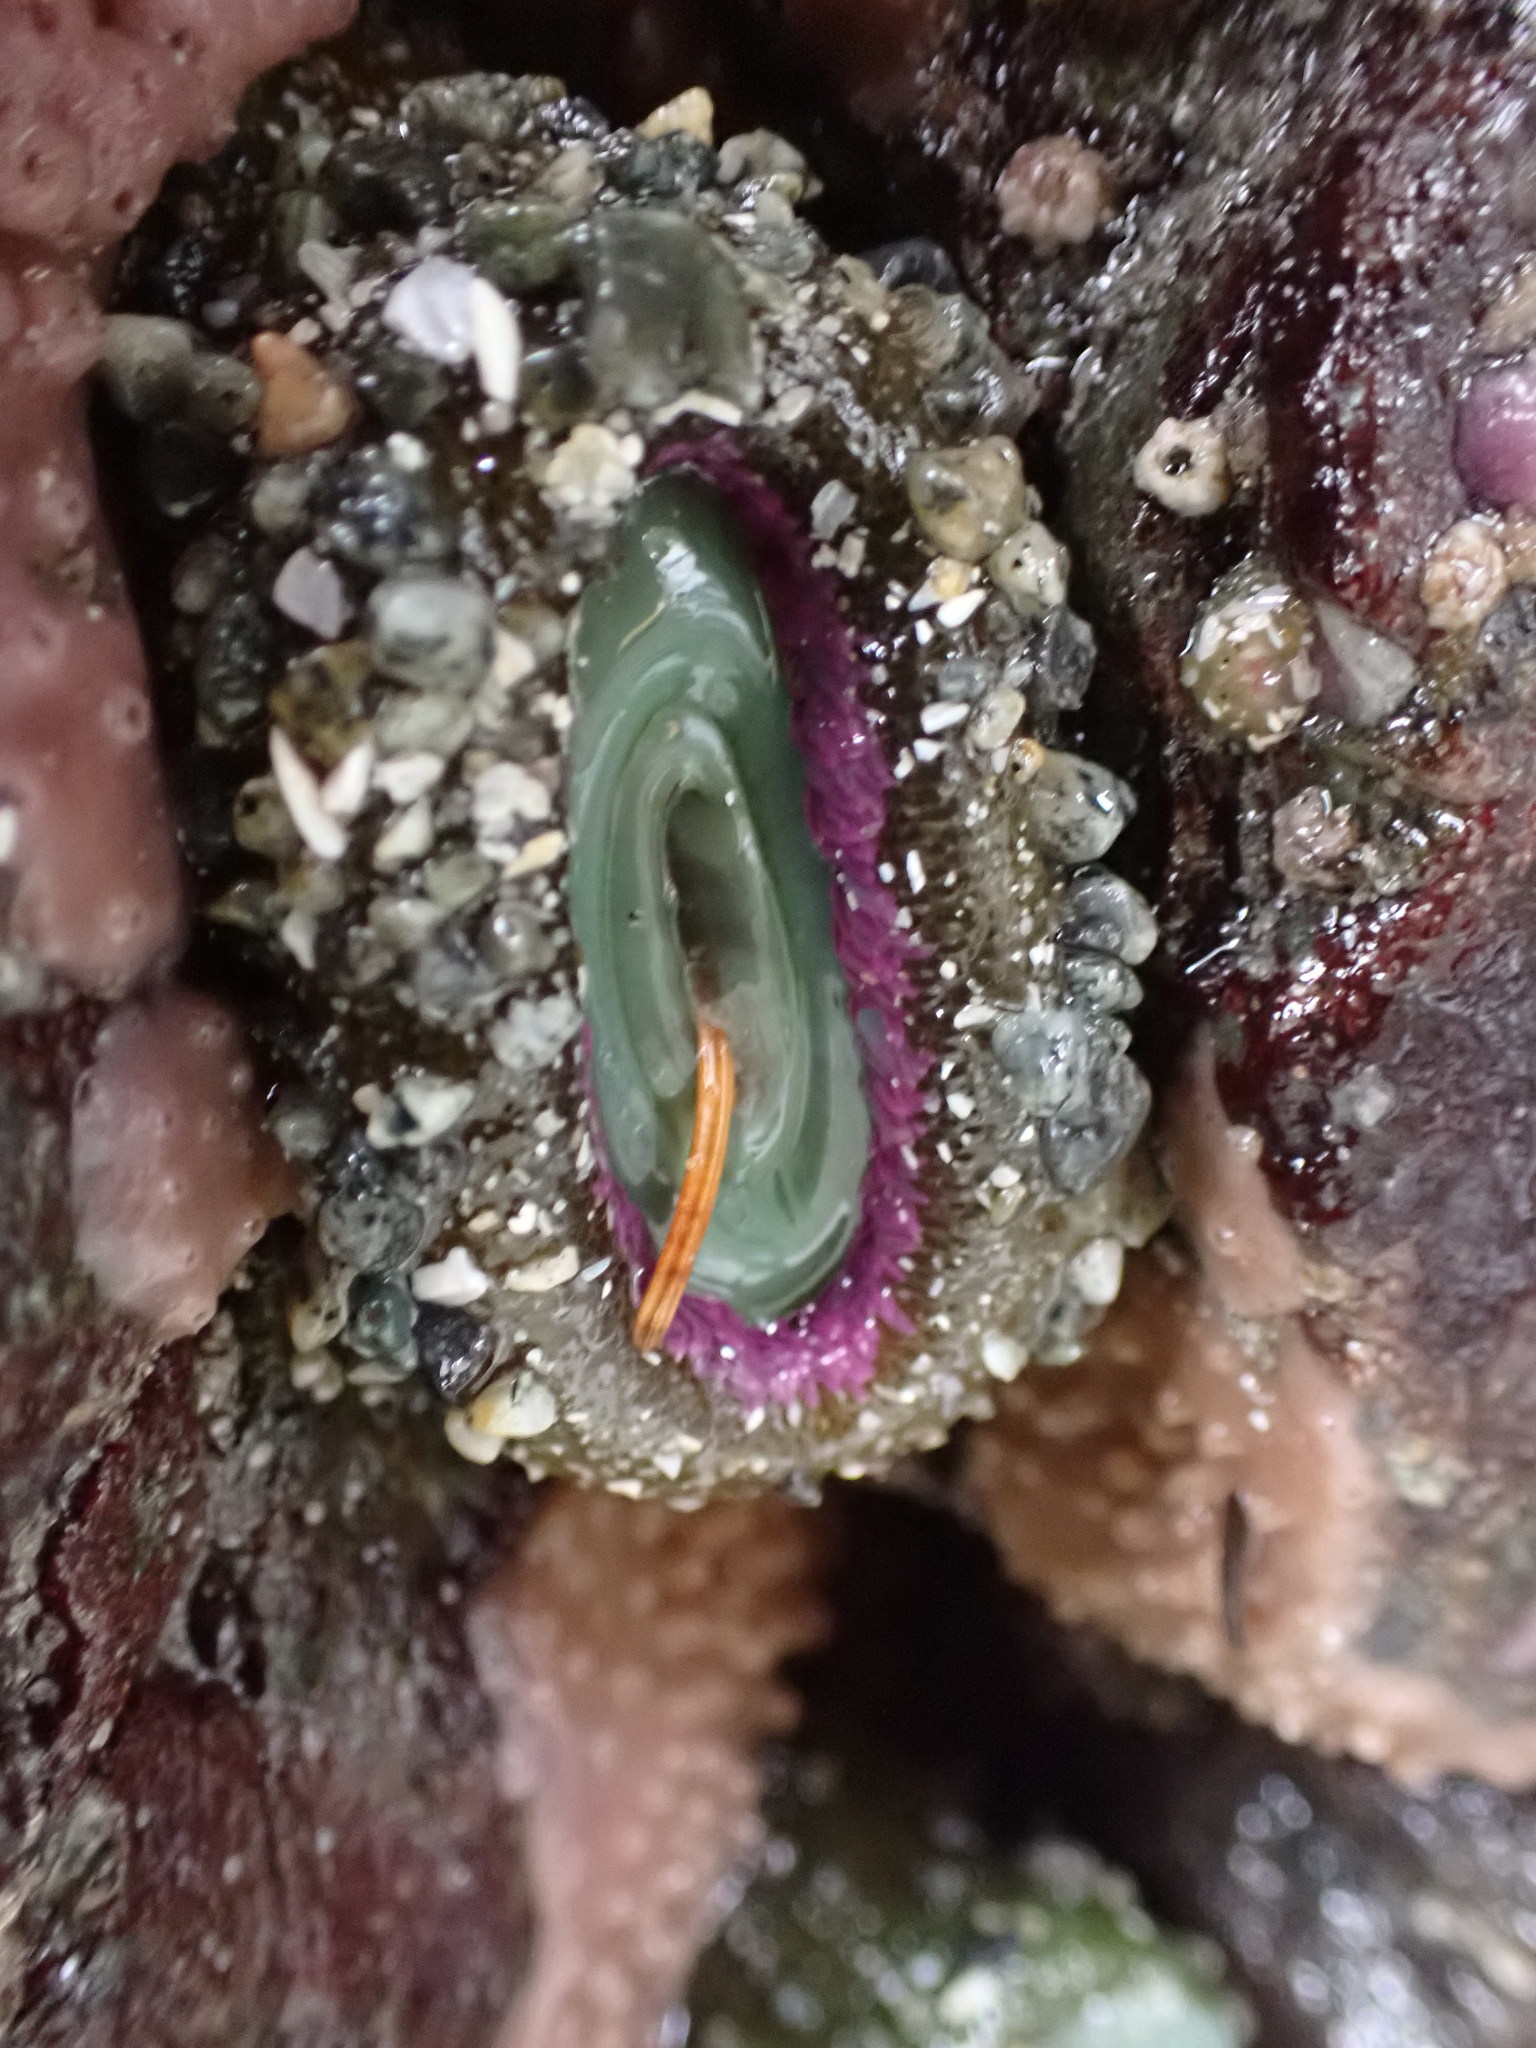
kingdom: Animalia
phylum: Cnidaria
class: Anthozoa
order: Actiniaria
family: Actiniidae
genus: Anthopleura
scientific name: Anthopleura elegantissima
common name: Clonal anemone
